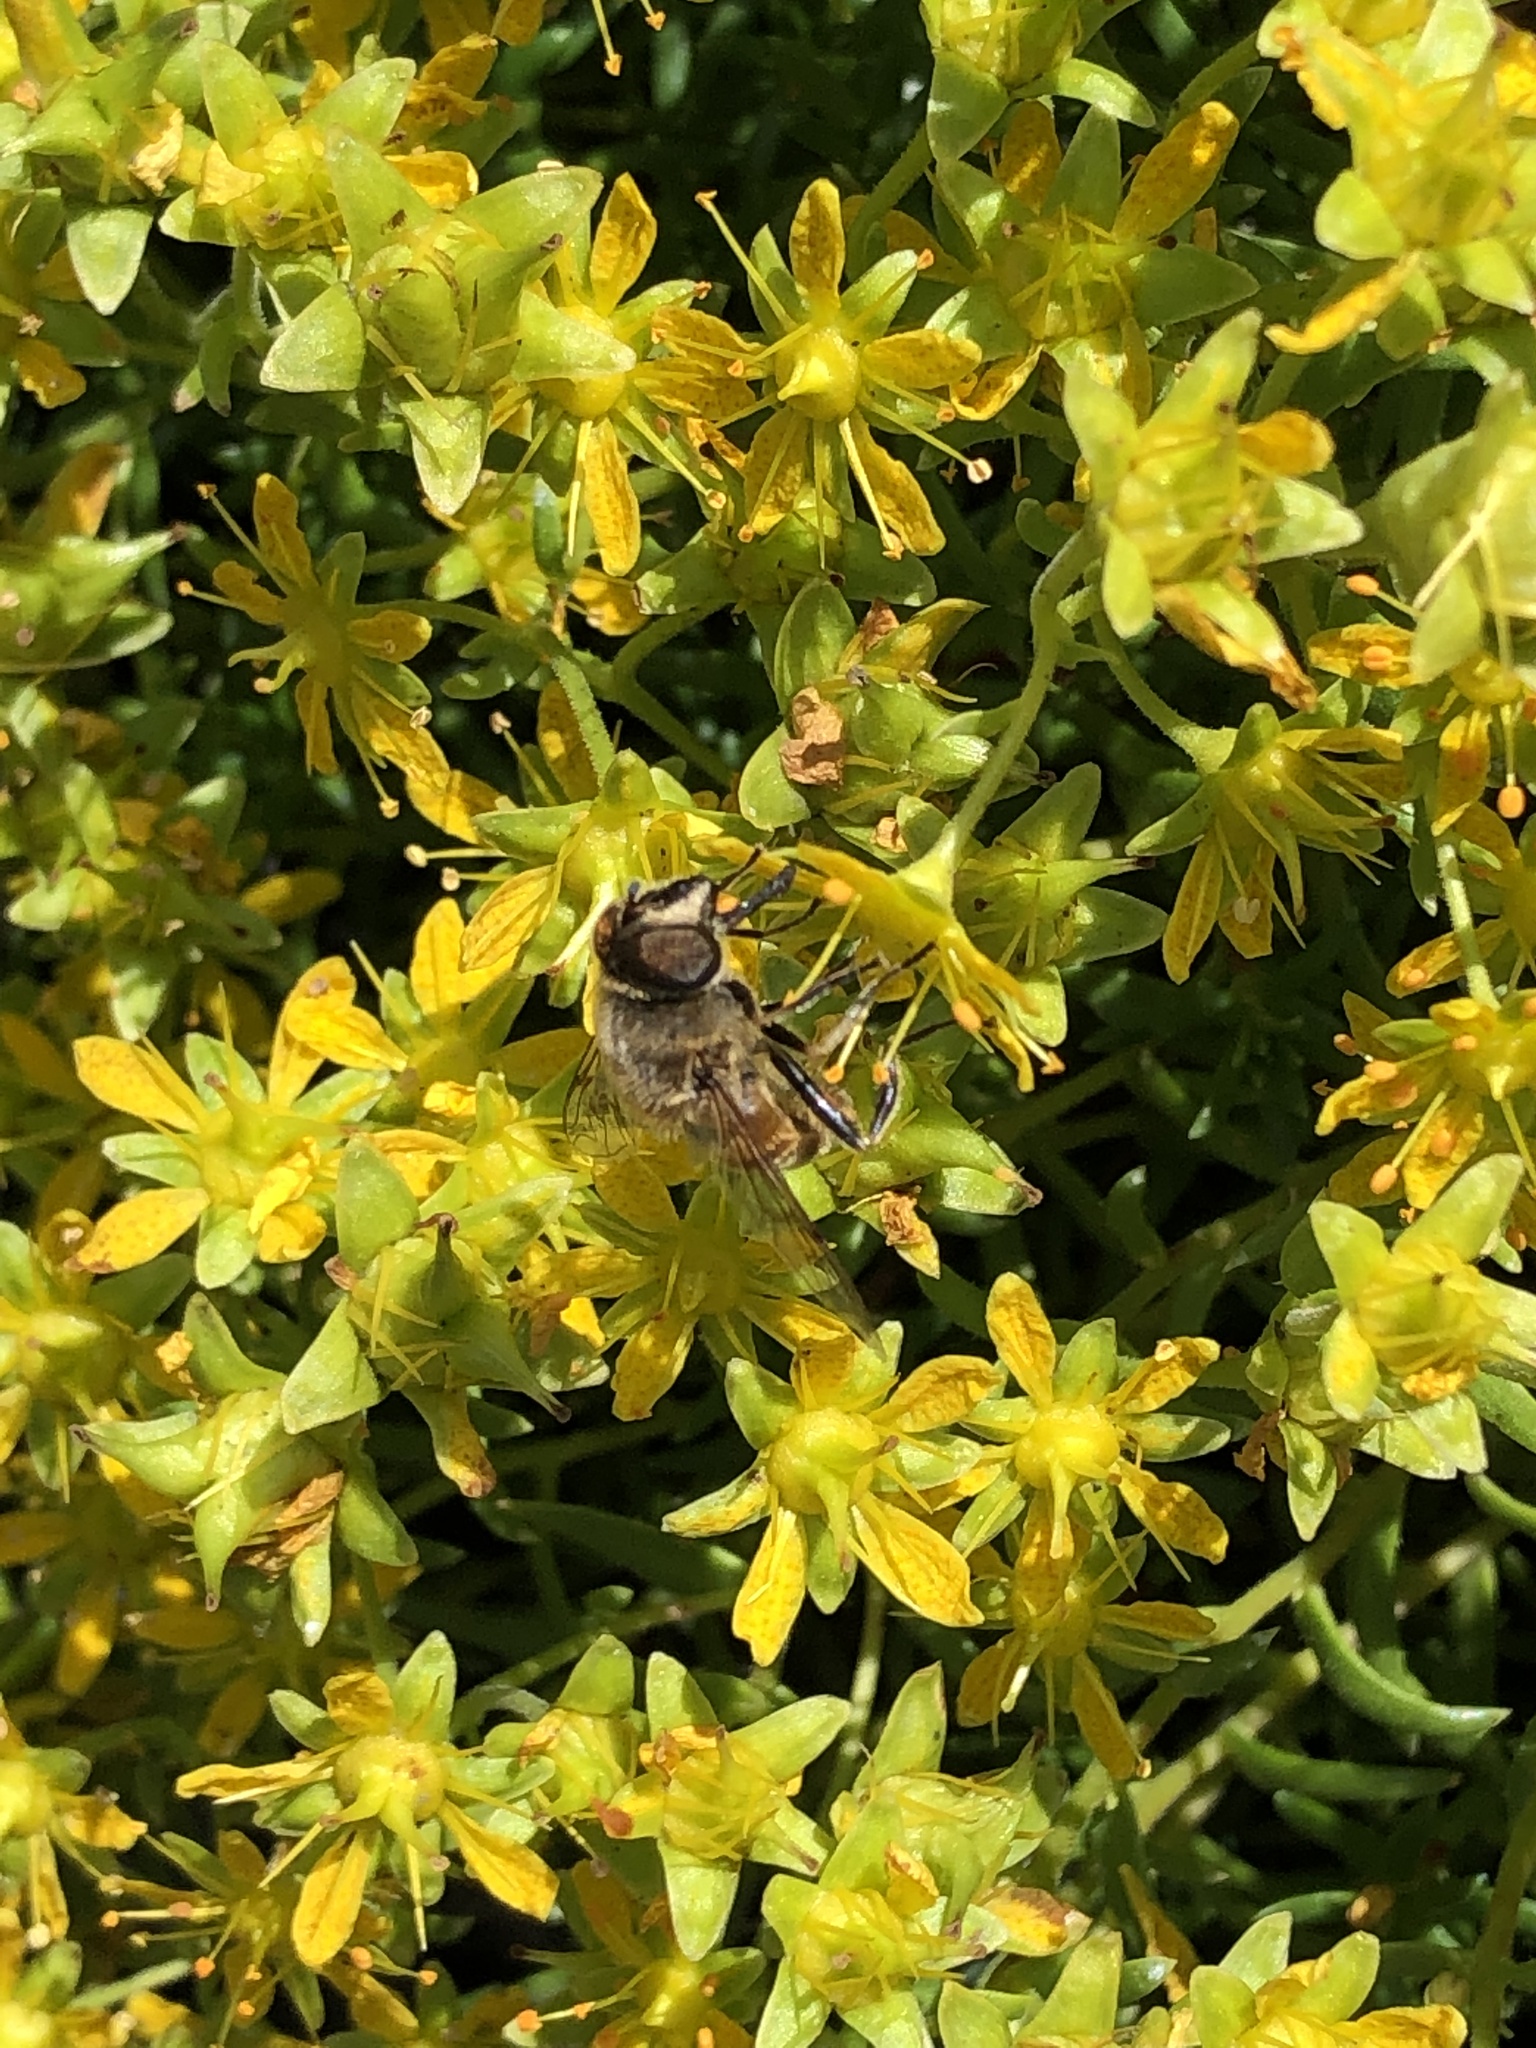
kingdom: Animalia
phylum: Arthropoda
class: Insecta
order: Diptera
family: Syrphidae
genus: Eristalis
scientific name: Eristalis tenax
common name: Drone fly
